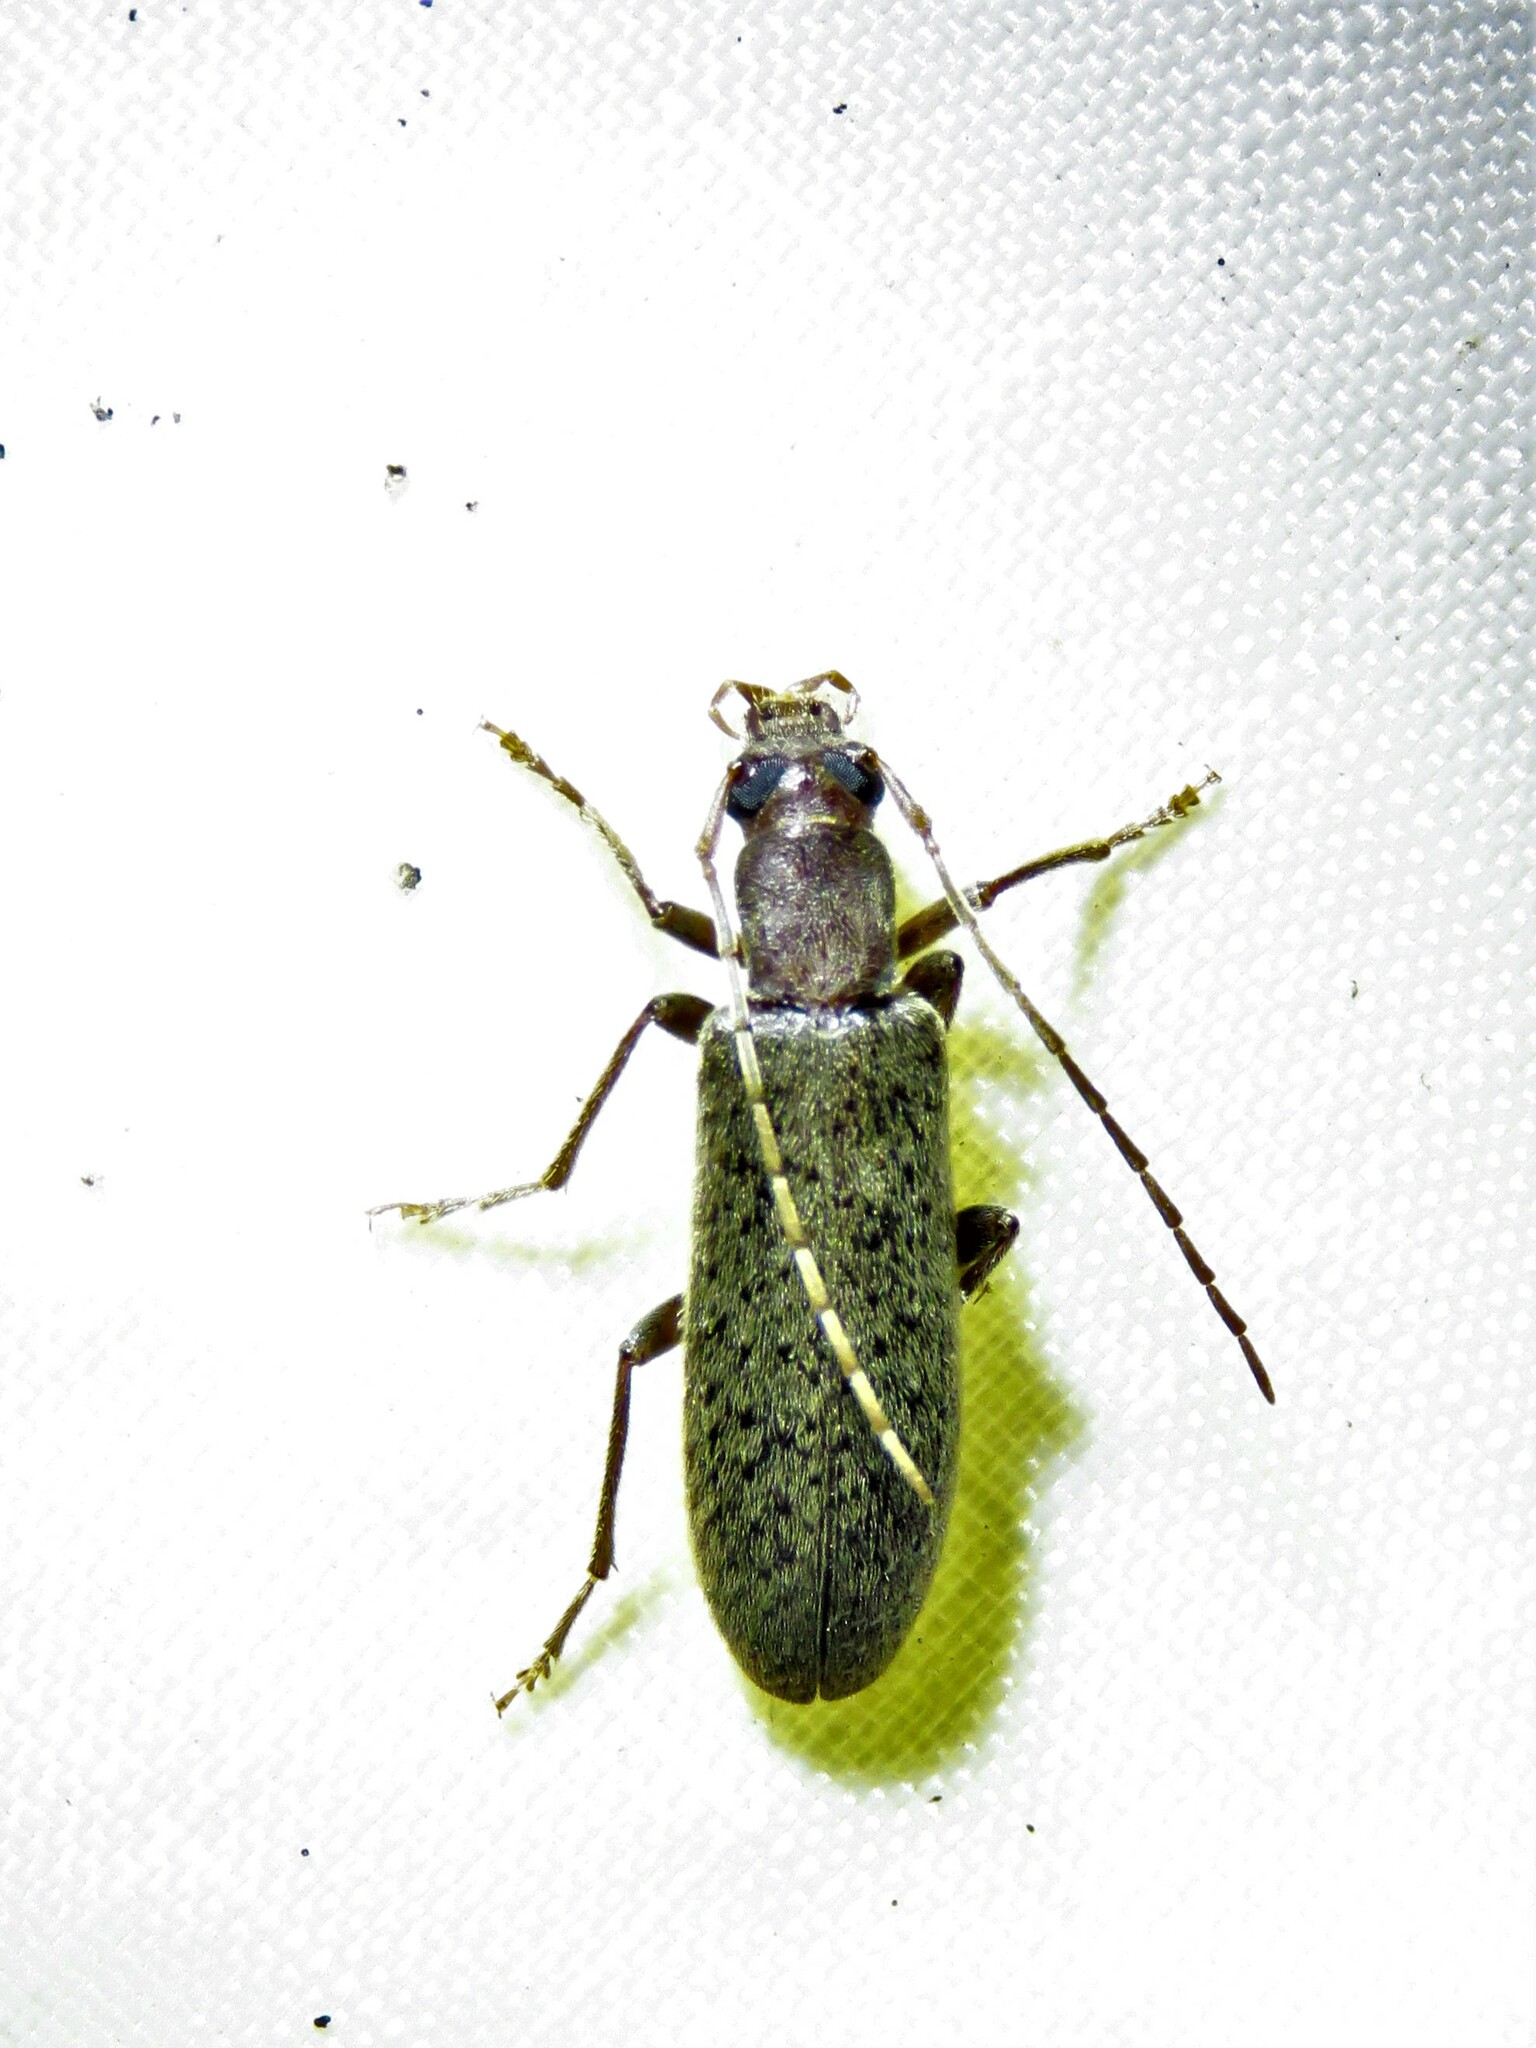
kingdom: Animalia
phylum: Arthropoda
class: Insecta
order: Coleoptera
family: Oedemeridae
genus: Sparedrus
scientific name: Sparedrus aspersus
